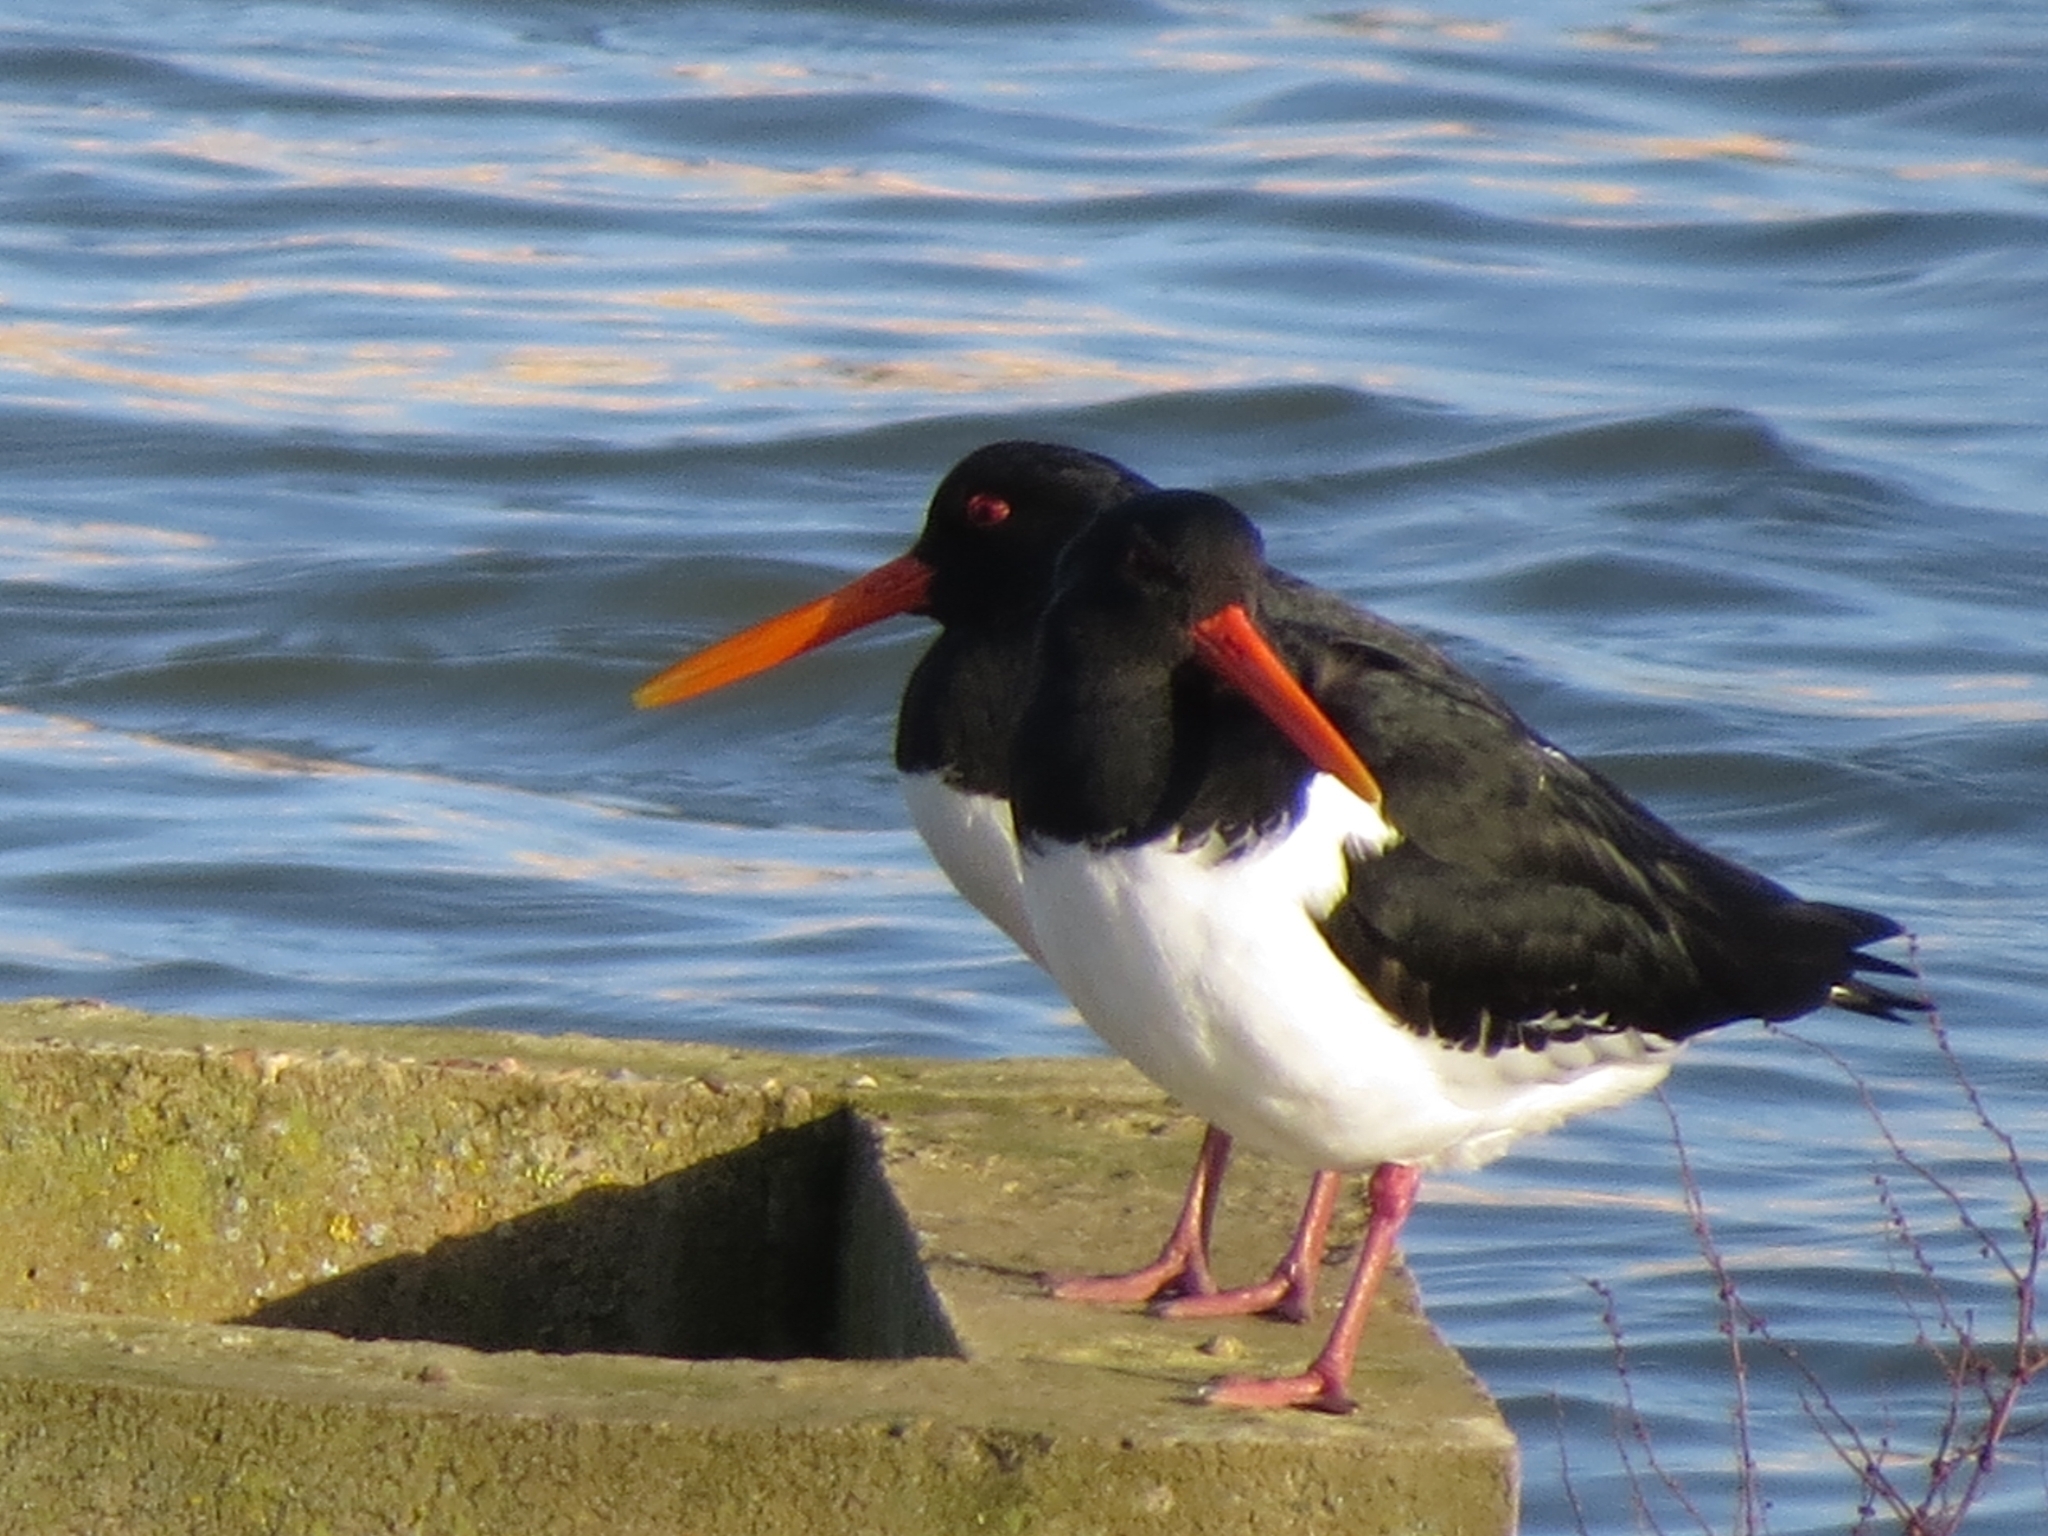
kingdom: Animalia
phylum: Chordata
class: Aves
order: Charadriiformes
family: Haematopodidae
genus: Haematopus
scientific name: Haematopus ostralegus
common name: Eurasian oystercatcher
